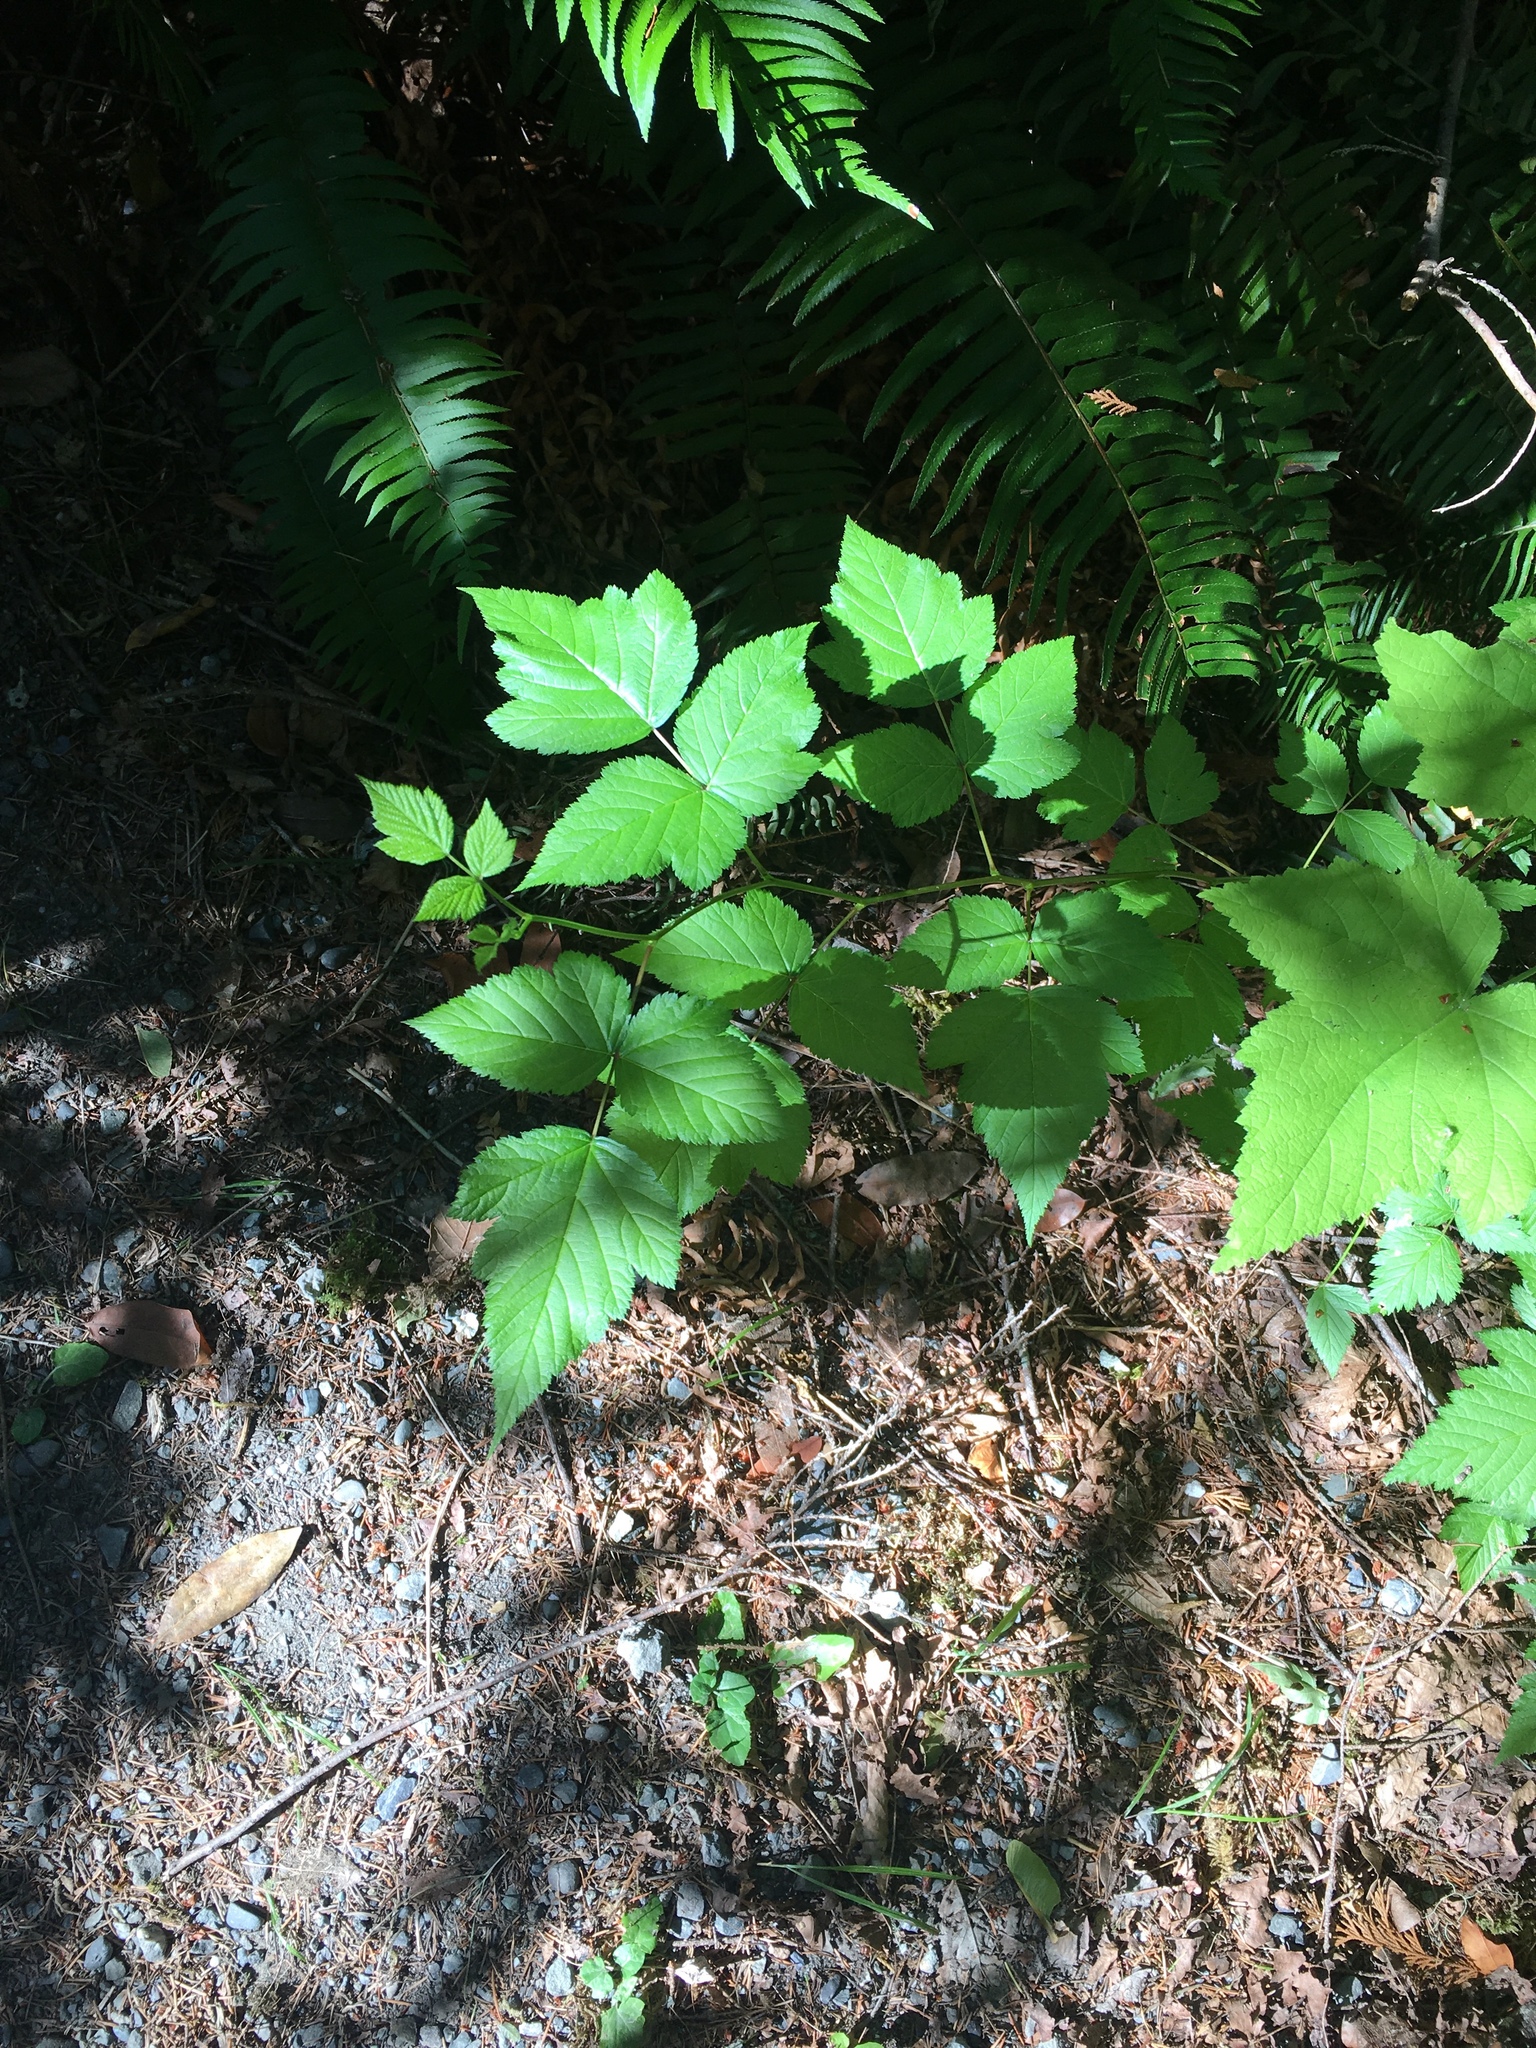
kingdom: Plantae
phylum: Tracheophyta
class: Magnoliopsida
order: Rosales
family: Rosaceae
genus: Rubus
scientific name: Rubus spectabilis
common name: Salmonberry
